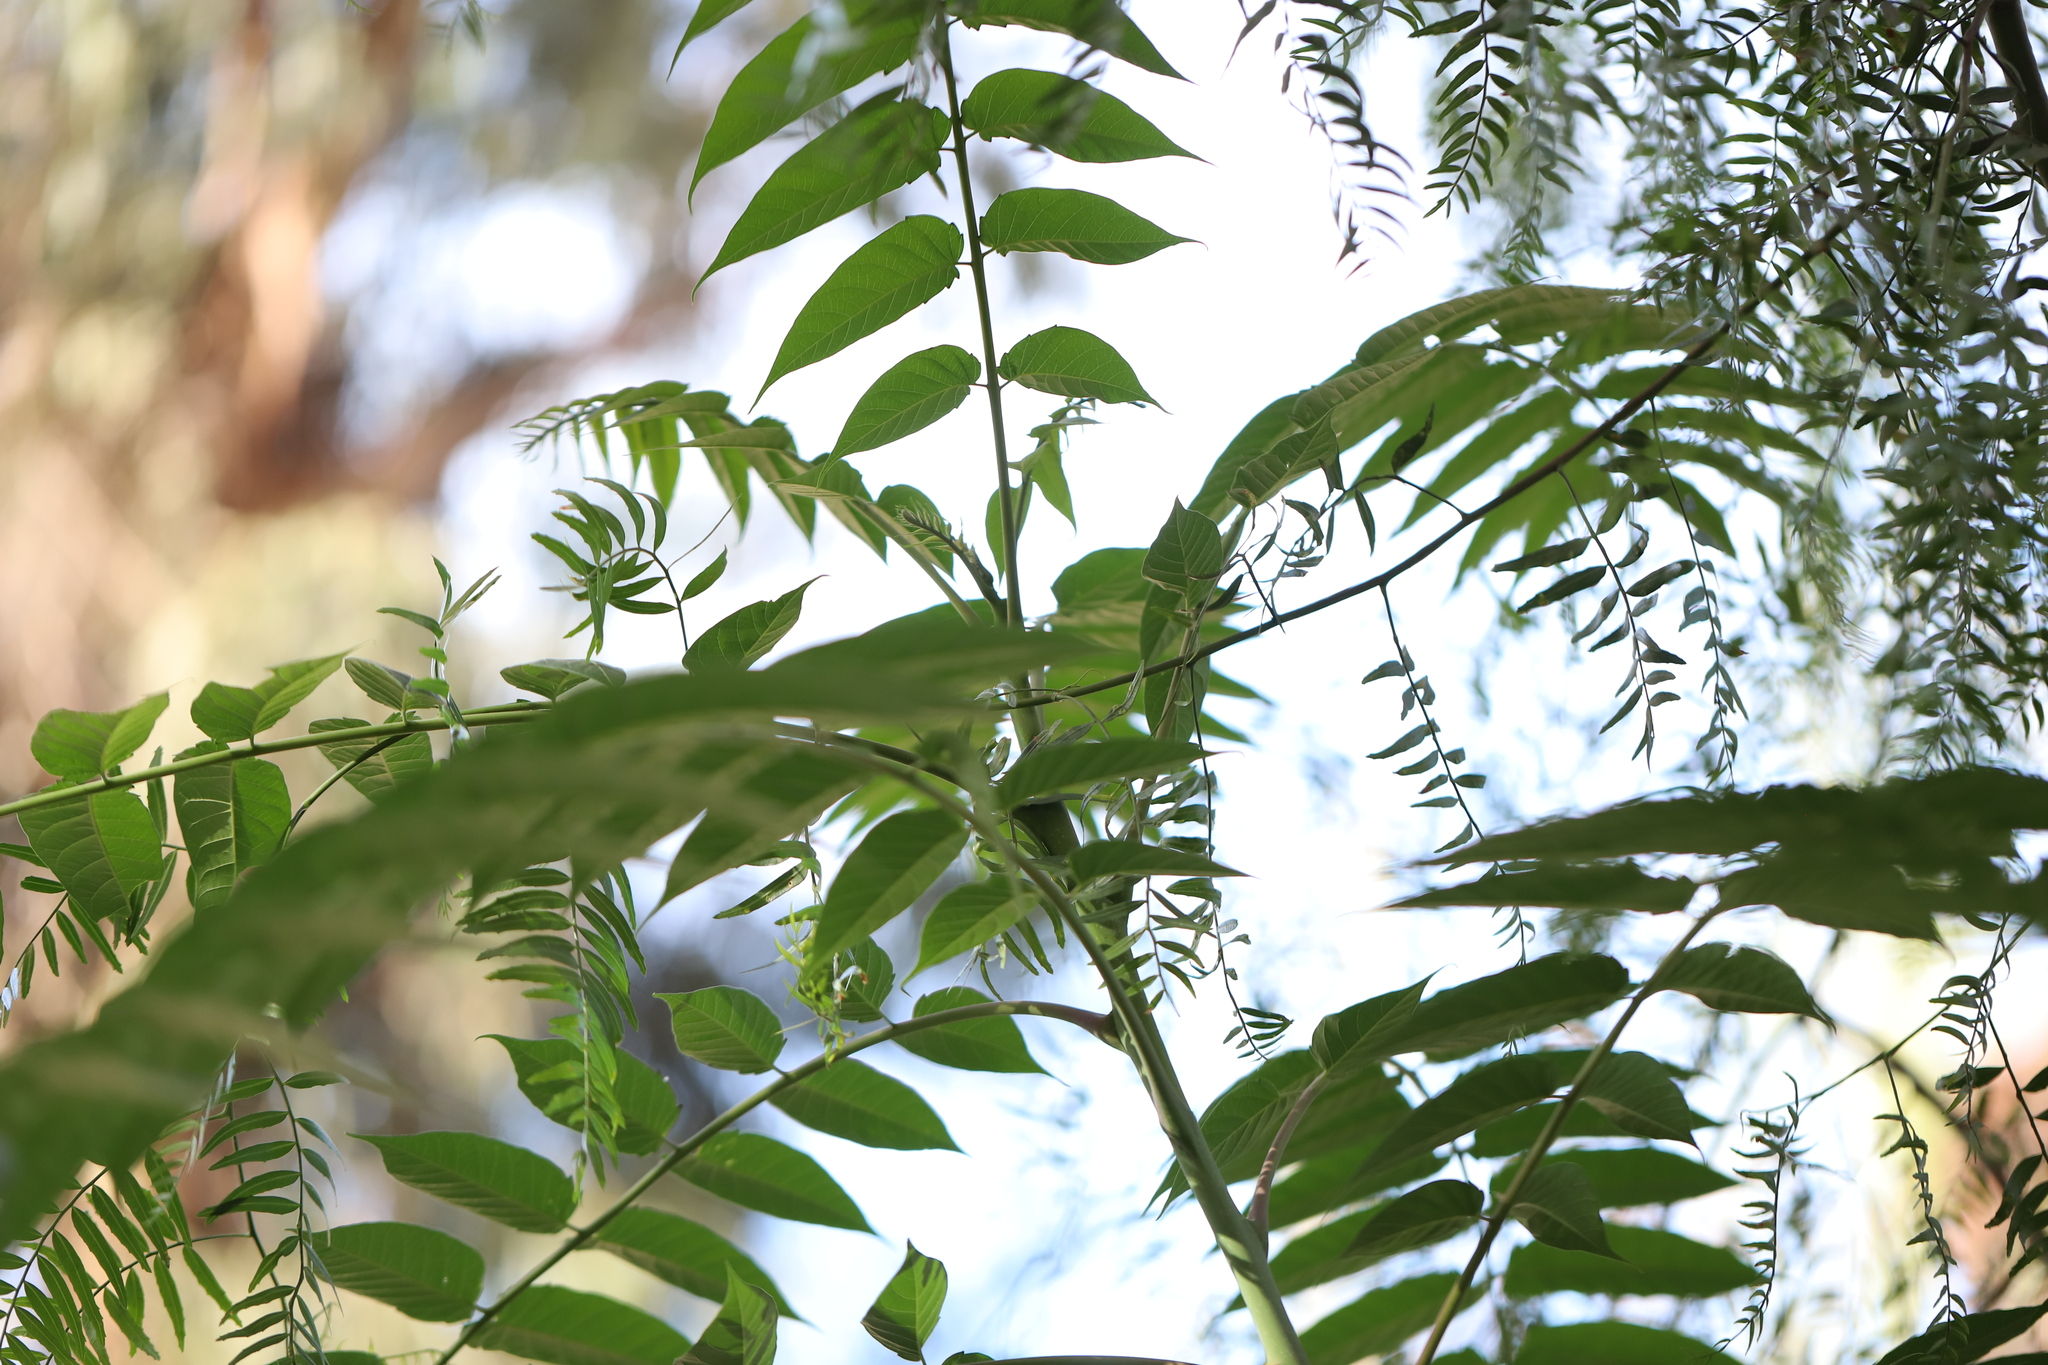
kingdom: Plantae
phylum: Tracheophyta
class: Magnoliopsida
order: Sapindales
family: Simaroubaceae
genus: Ailanthus
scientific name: Ailanthus altissima
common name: Tree-of-heaven
